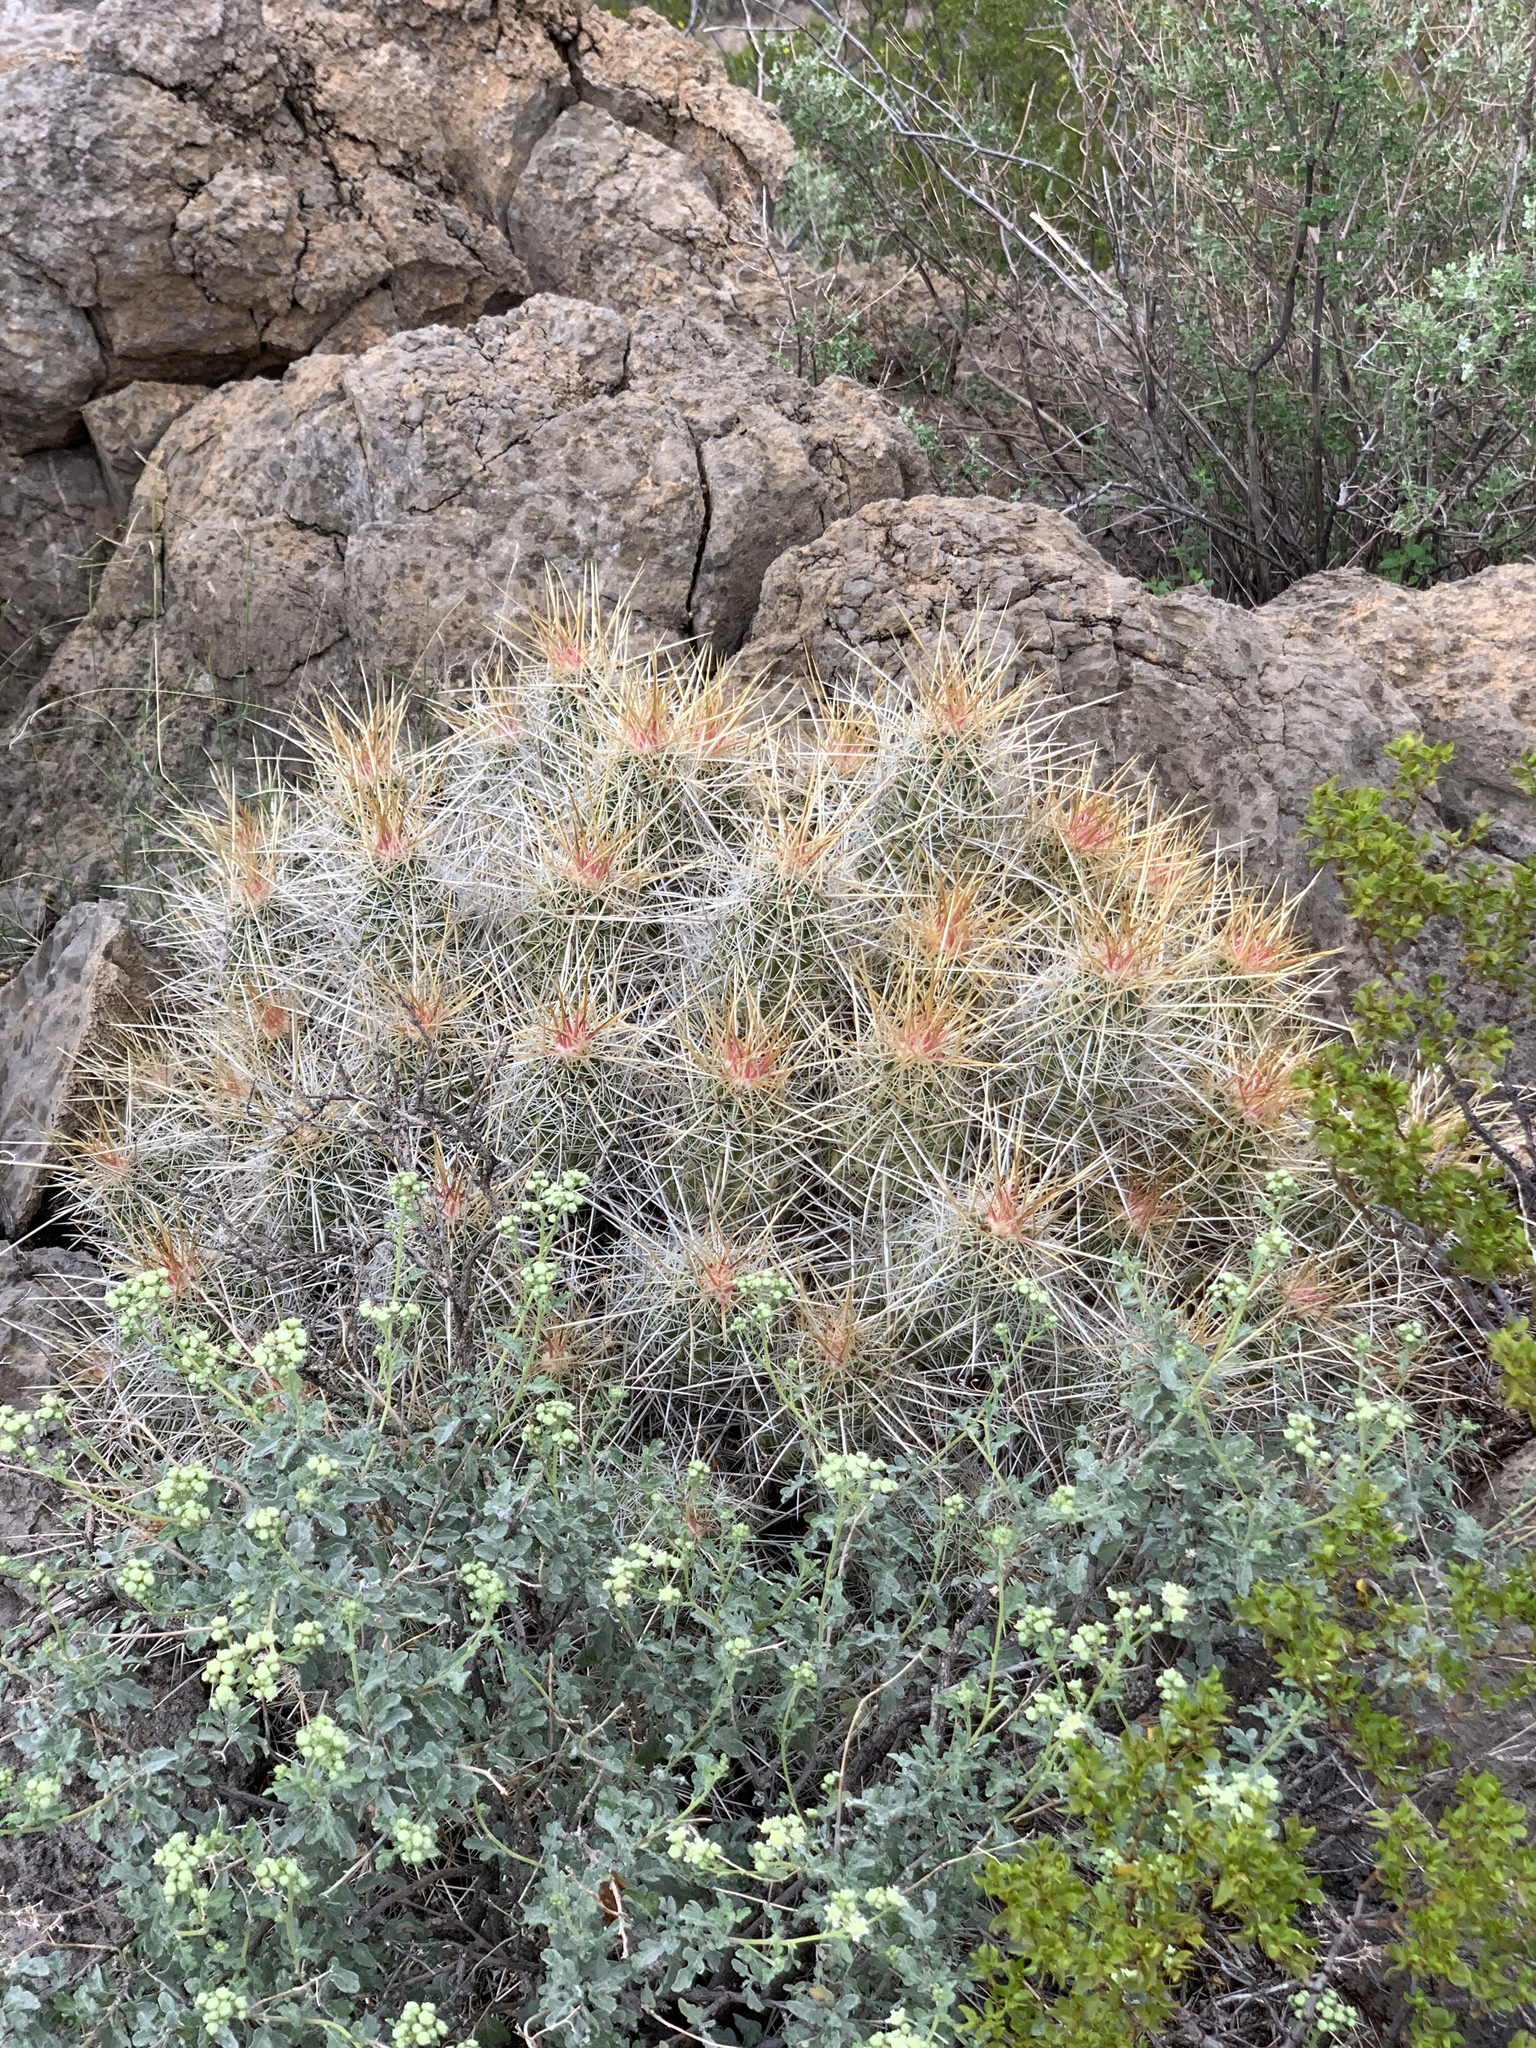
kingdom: Plantae
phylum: Tracheophyta
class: Magnoliopsida
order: Caryophyllales
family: Cactaceae
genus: Echinocereus
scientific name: Echinocereus stramineus
